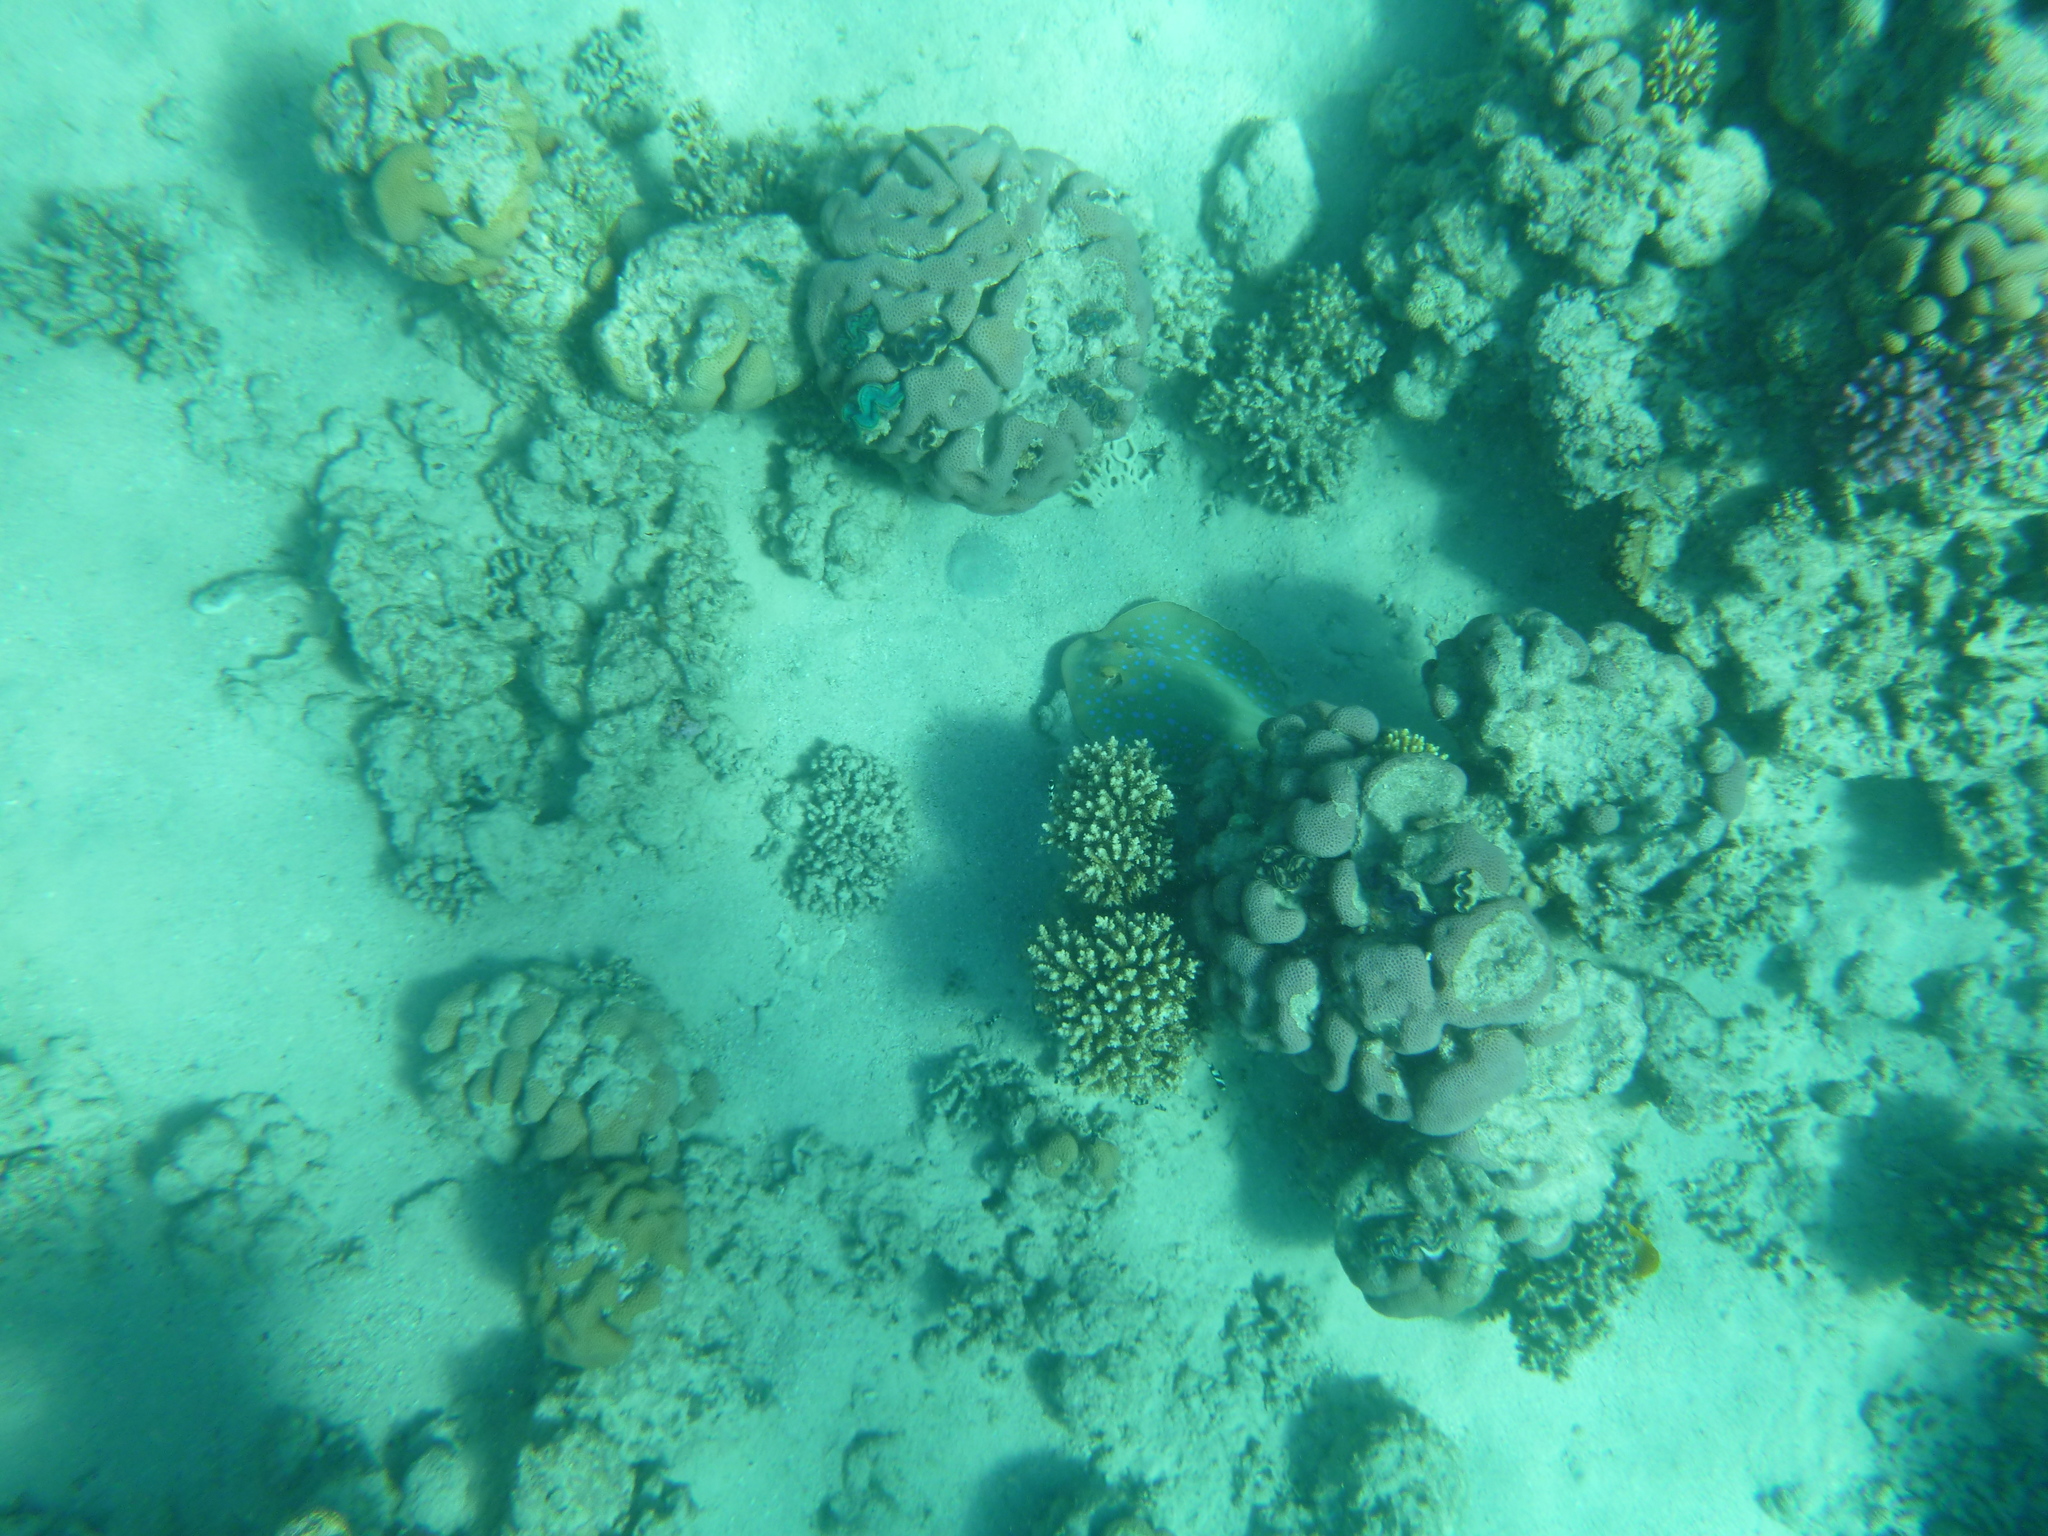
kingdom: Animalia
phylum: Chordata
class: Elasmobranchii
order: Myliobatiformes
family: Dasyatidae
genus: Taeniura
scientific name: Taeniura lymma
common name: Bluespotted ribbontail ray
